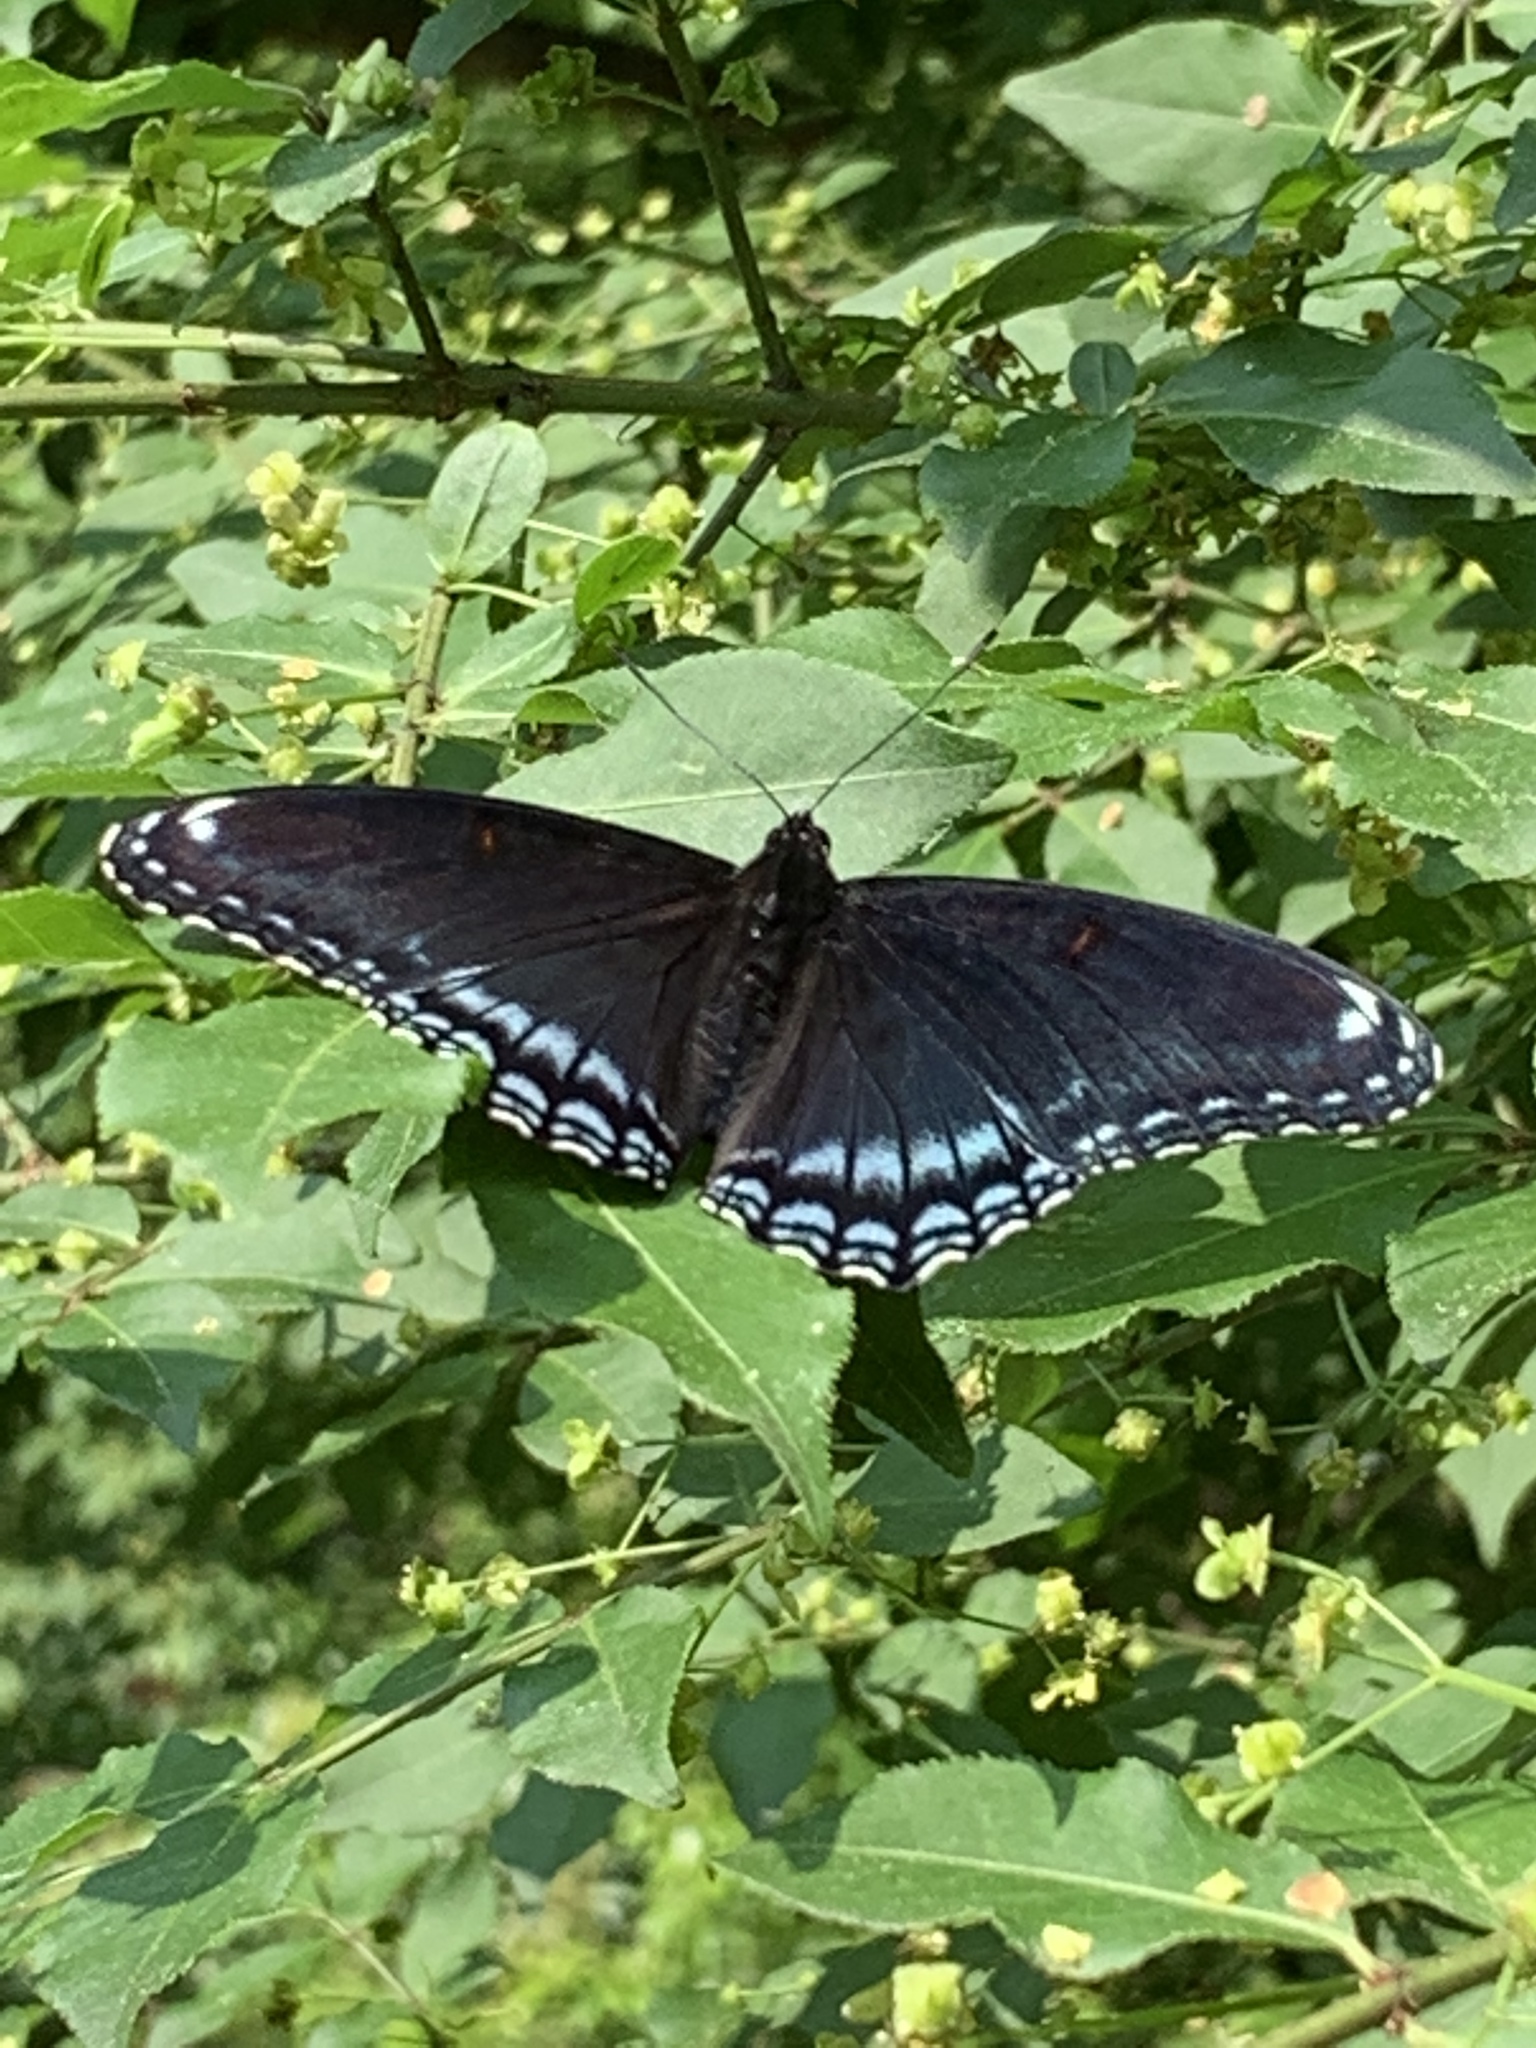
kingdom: Animalia
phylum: Arthropoda
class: Insecta
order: Lepidoptera
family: Nymphalidae
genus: Limenitis
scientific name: Limenitis arthemis
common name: Red-spotted admiral
